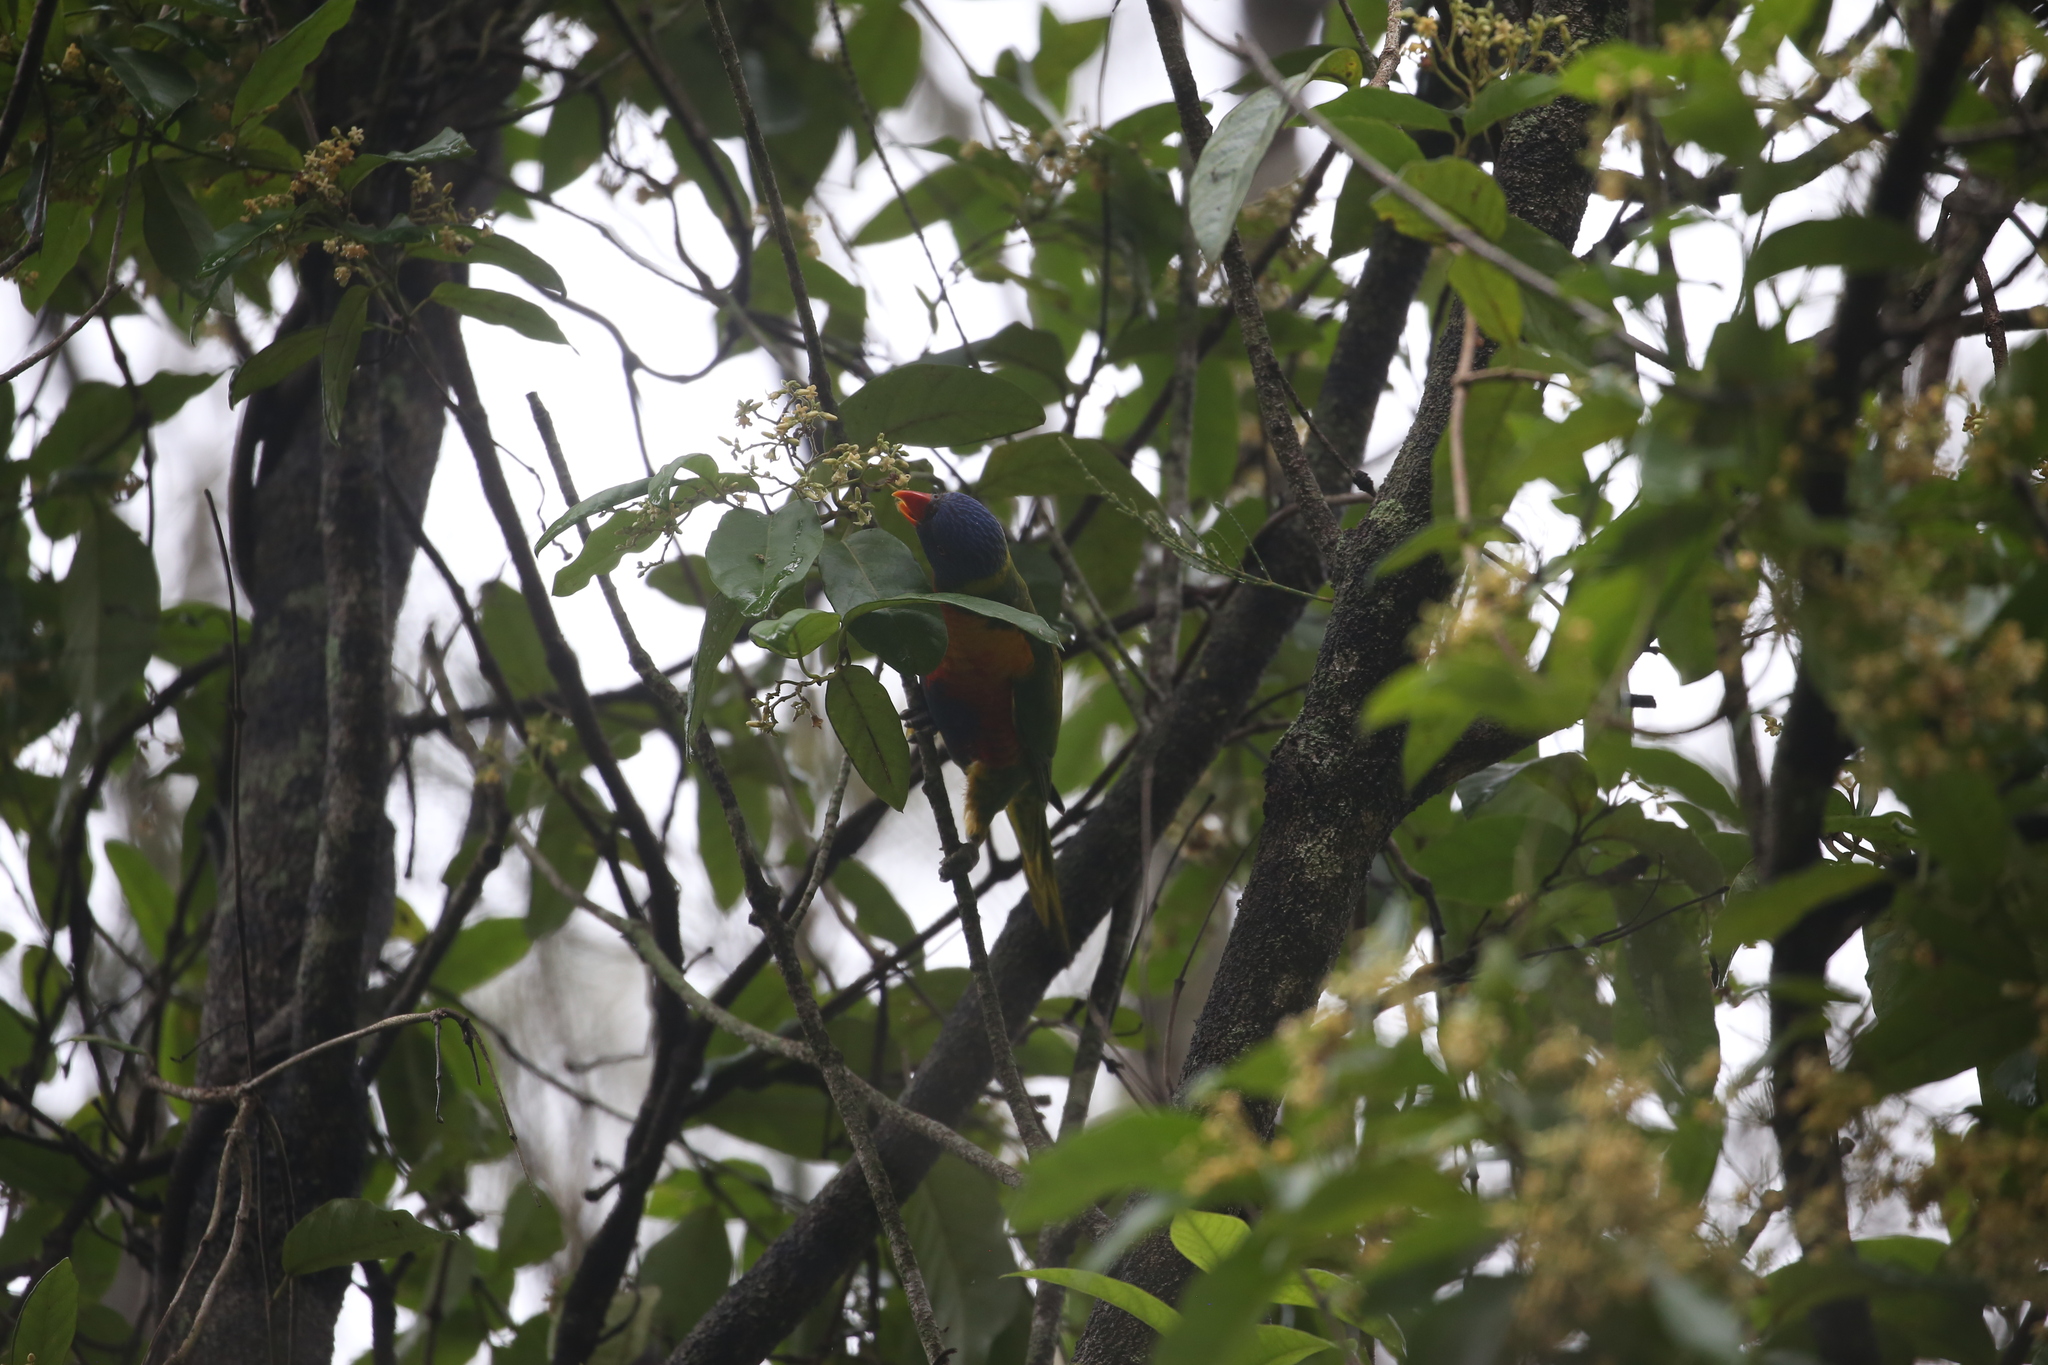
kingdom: Animalia
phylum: Chordata
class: Aves
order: Psittaciformes
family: Psittacidae
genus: Trichoglossus
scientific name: Trichoglossus haematodus
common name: Coconut lorikeet
